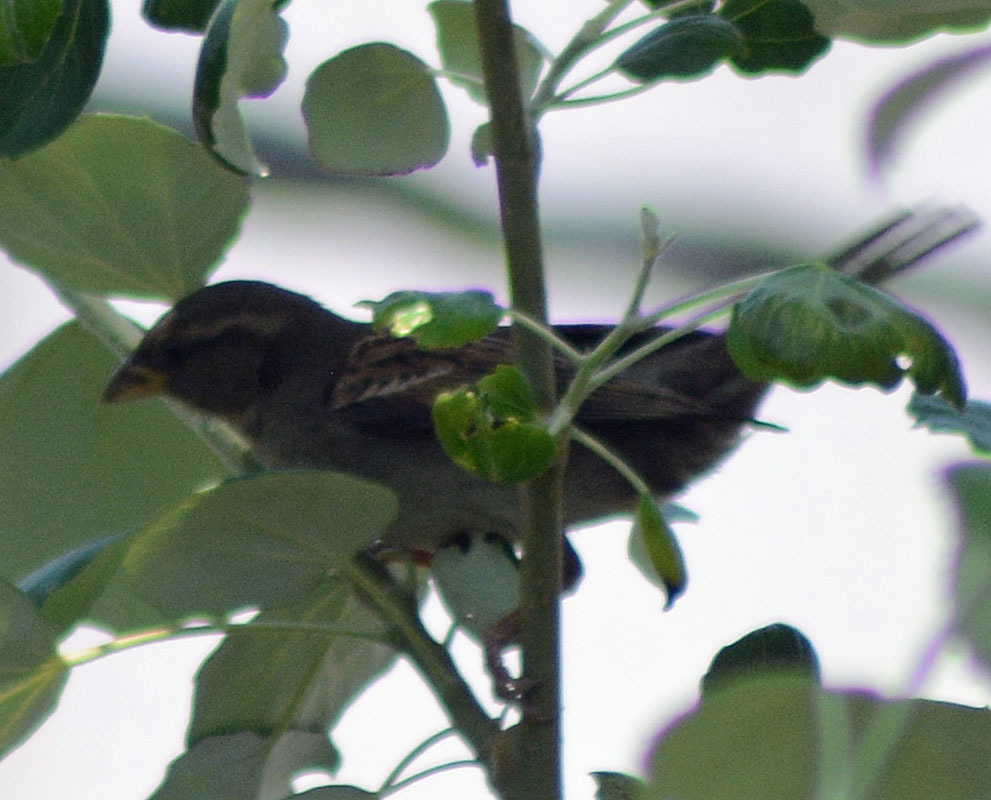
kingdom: Animalia
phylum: Chordata
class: Aves
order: Passeriformes
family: Passeridae
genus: Passer
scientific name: Passer domesticus
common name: House sparrow
